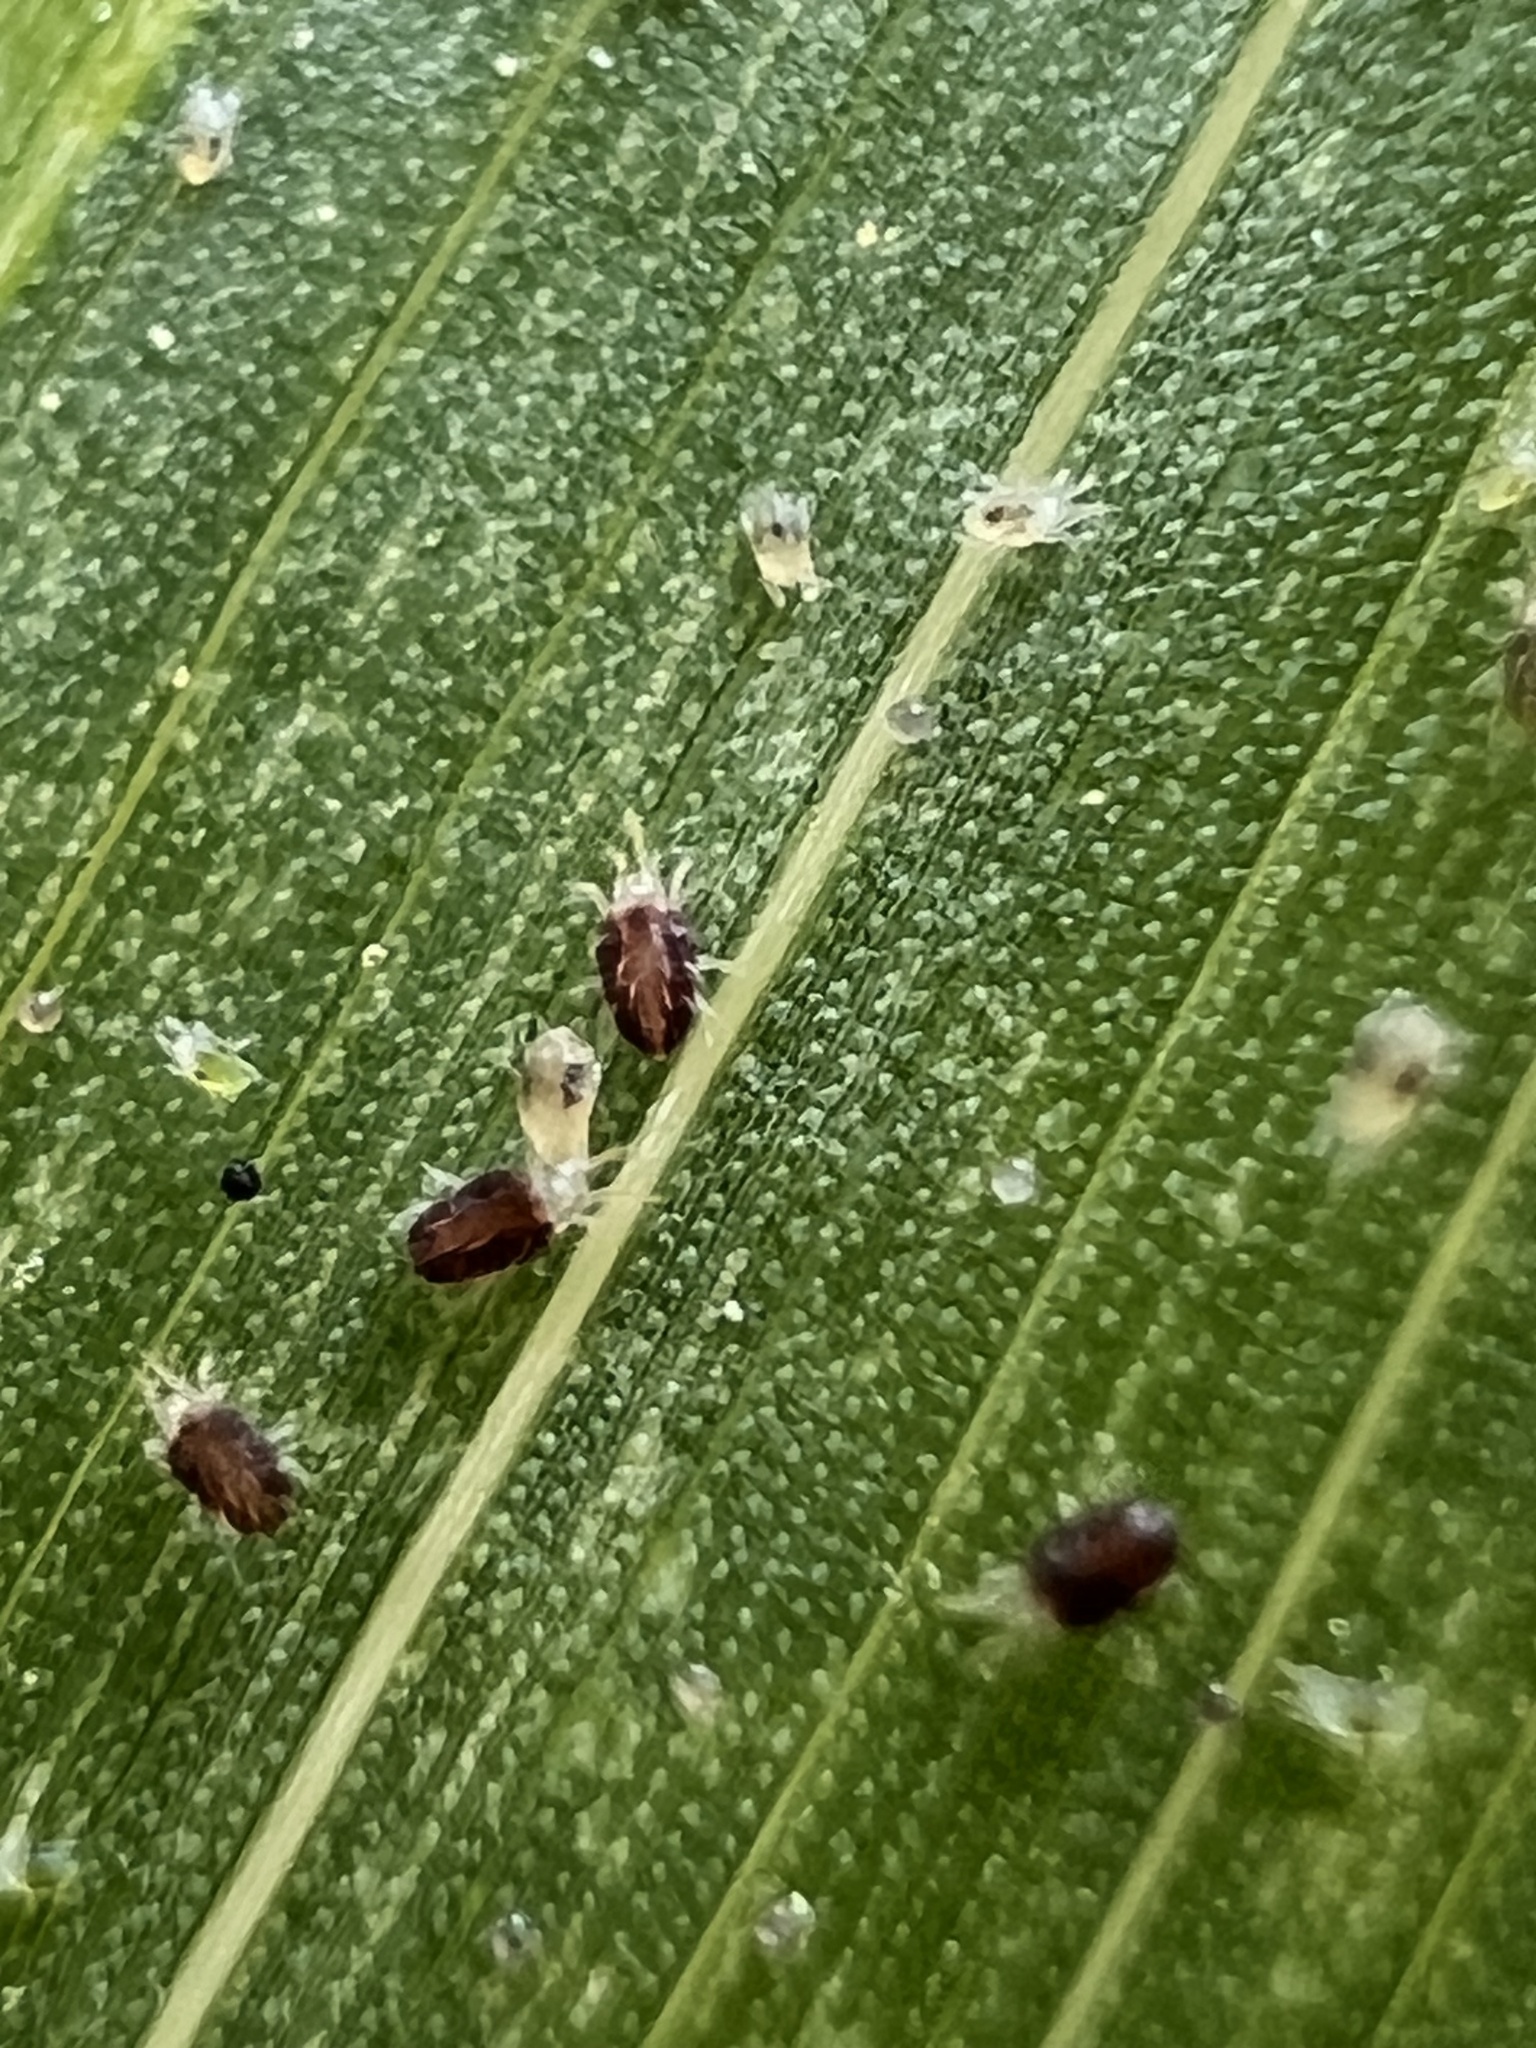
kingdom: Animalia
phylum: Arthropoda
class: Arachnida
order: Trombidiformes
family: Tetranychidae
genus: Tetranychus
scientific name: Tetranychus urticae
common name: Carmine spider mite
